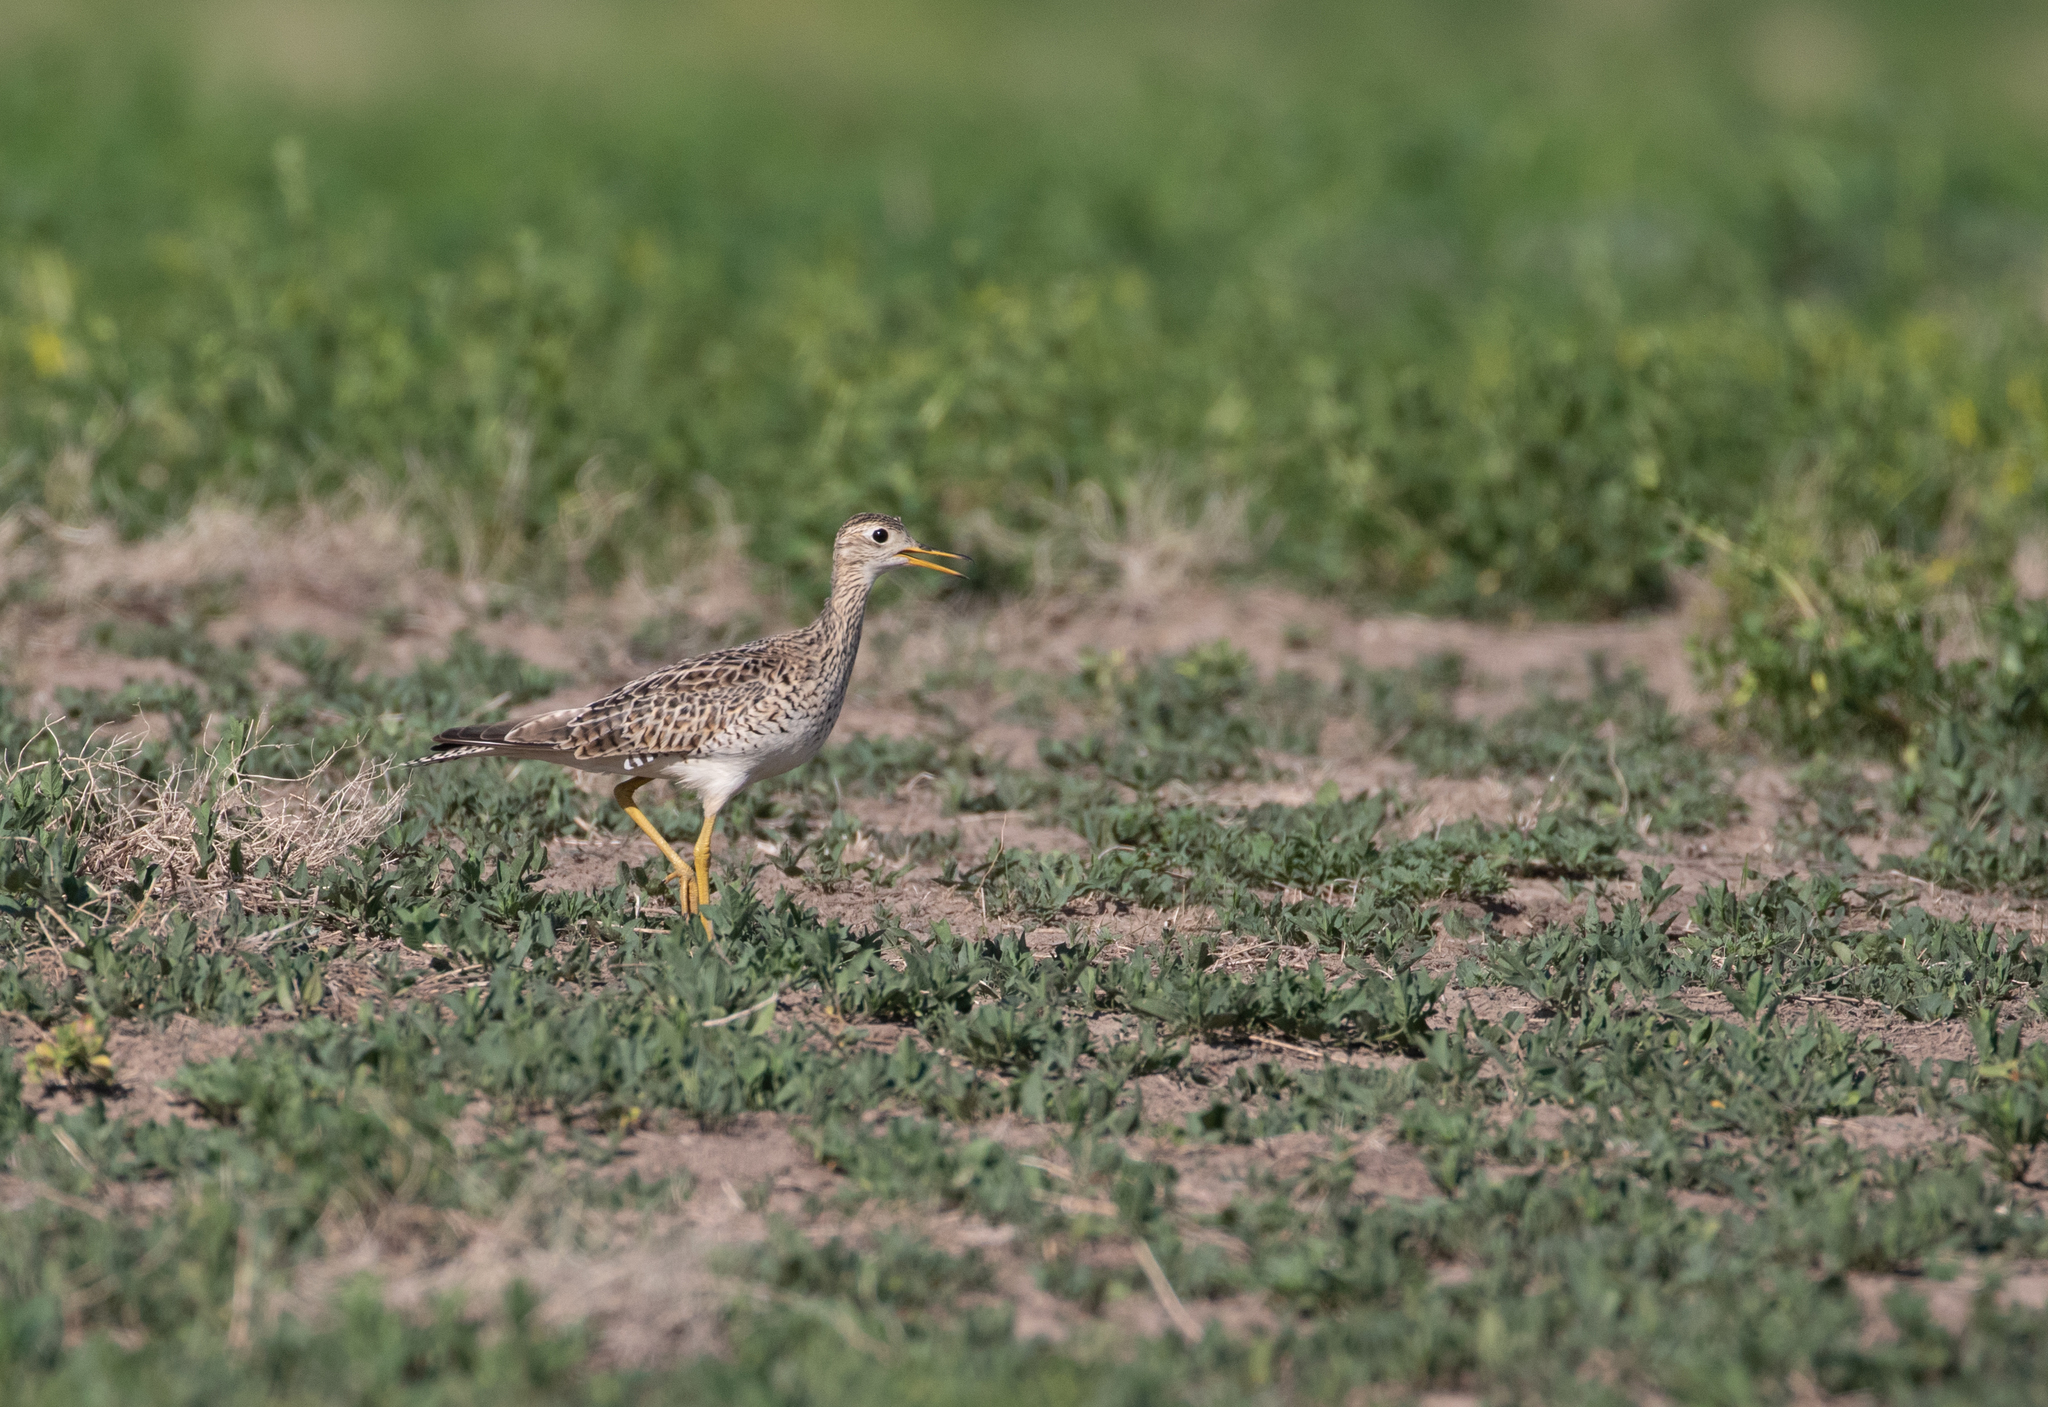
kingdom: Animalia
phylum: Chordata
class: Aves
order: Charadriiformes
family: Scolopacidae
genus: Bartramia
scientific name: Bartramia longicauda
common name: Upland sandpiper
